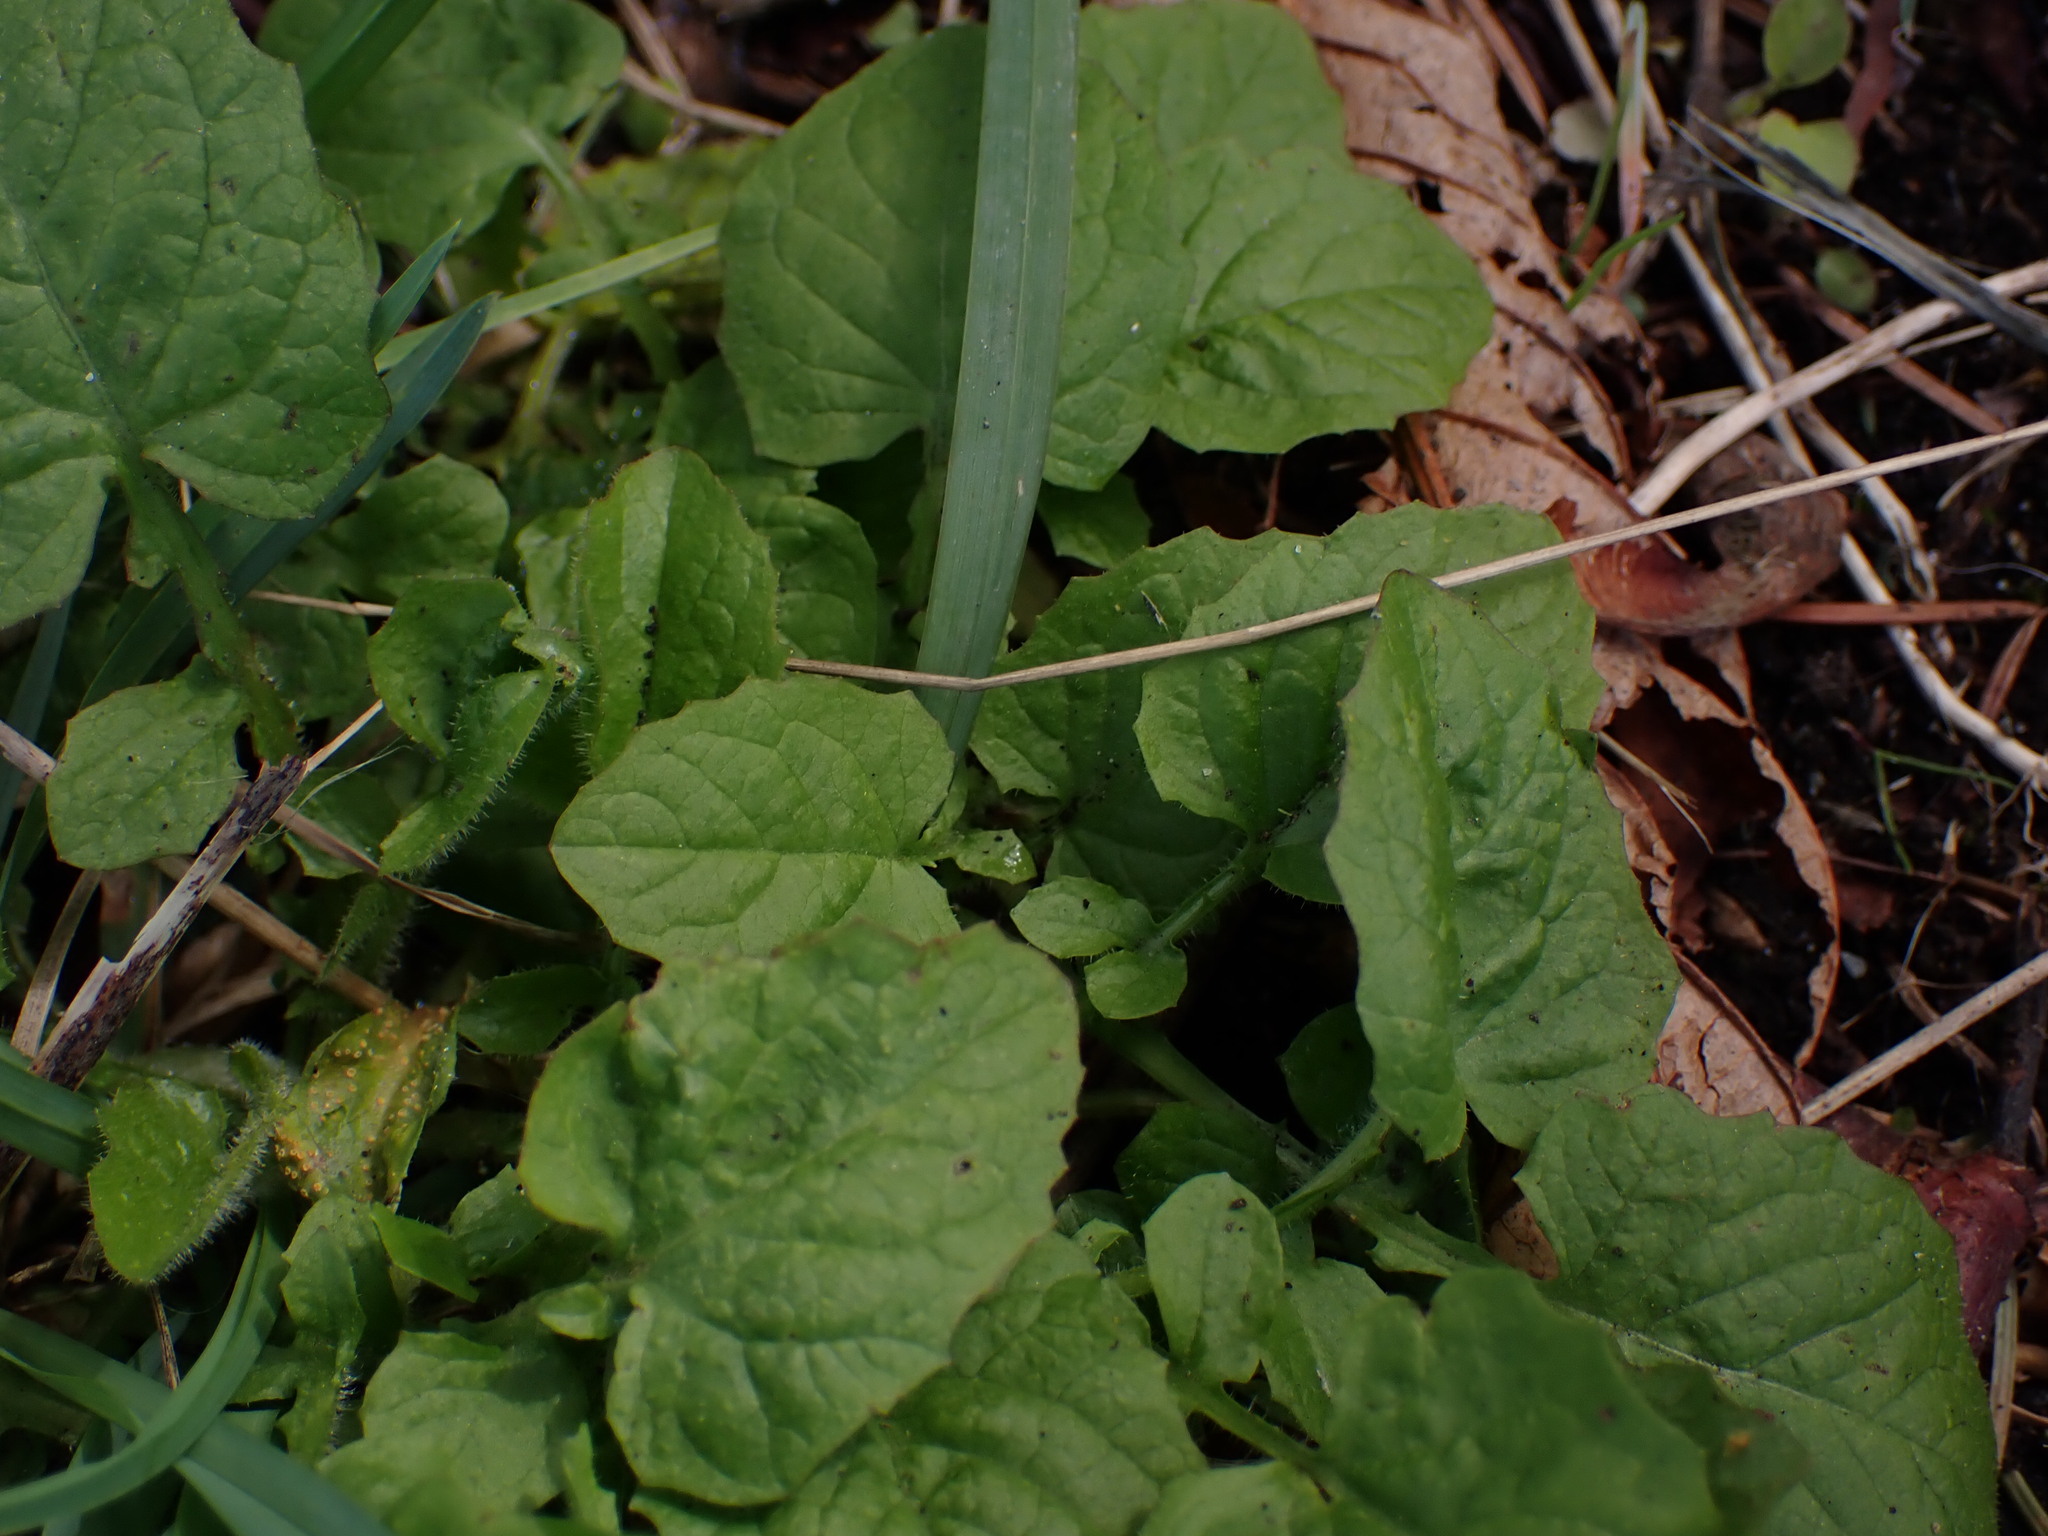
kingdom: Plantae
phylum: Tracheophyta
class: Magnoliopsida
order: Asterales
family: Asteraceae
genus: Lapsana
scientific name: Lapsana communis
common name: Nipplewort
